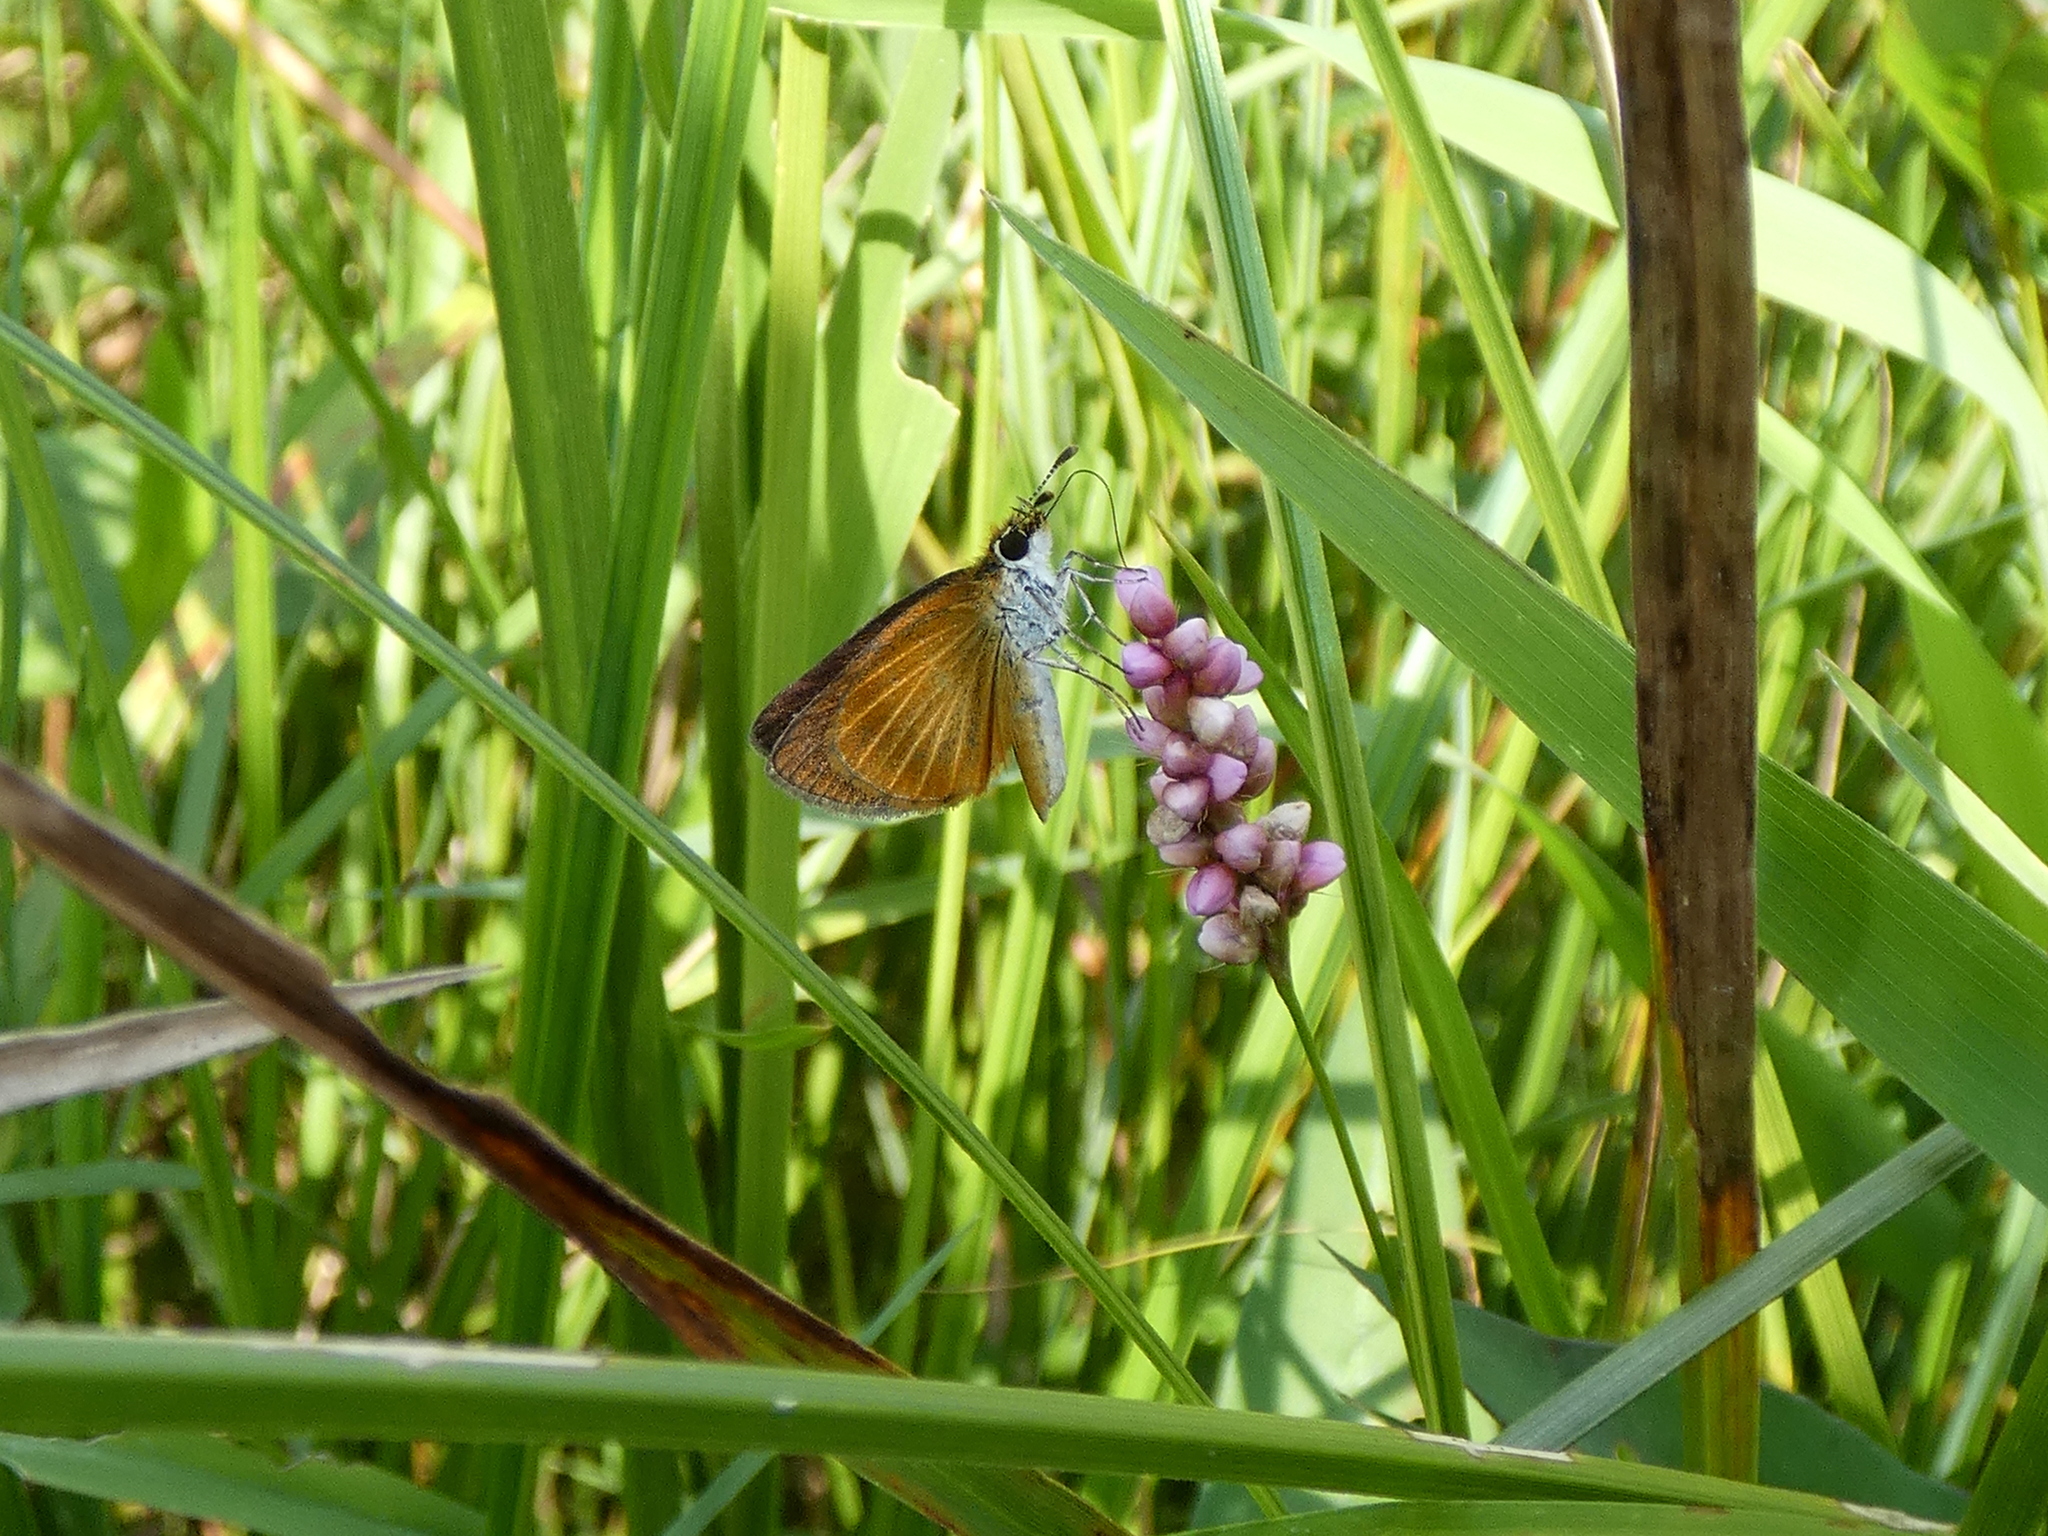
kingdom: Animalia
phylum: Arthropoda
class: Insecta
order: Lepidoptera
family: Hesperiidae
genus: Ancyloxypha
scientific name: Ancyloxypha numitor
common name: Least skipper
